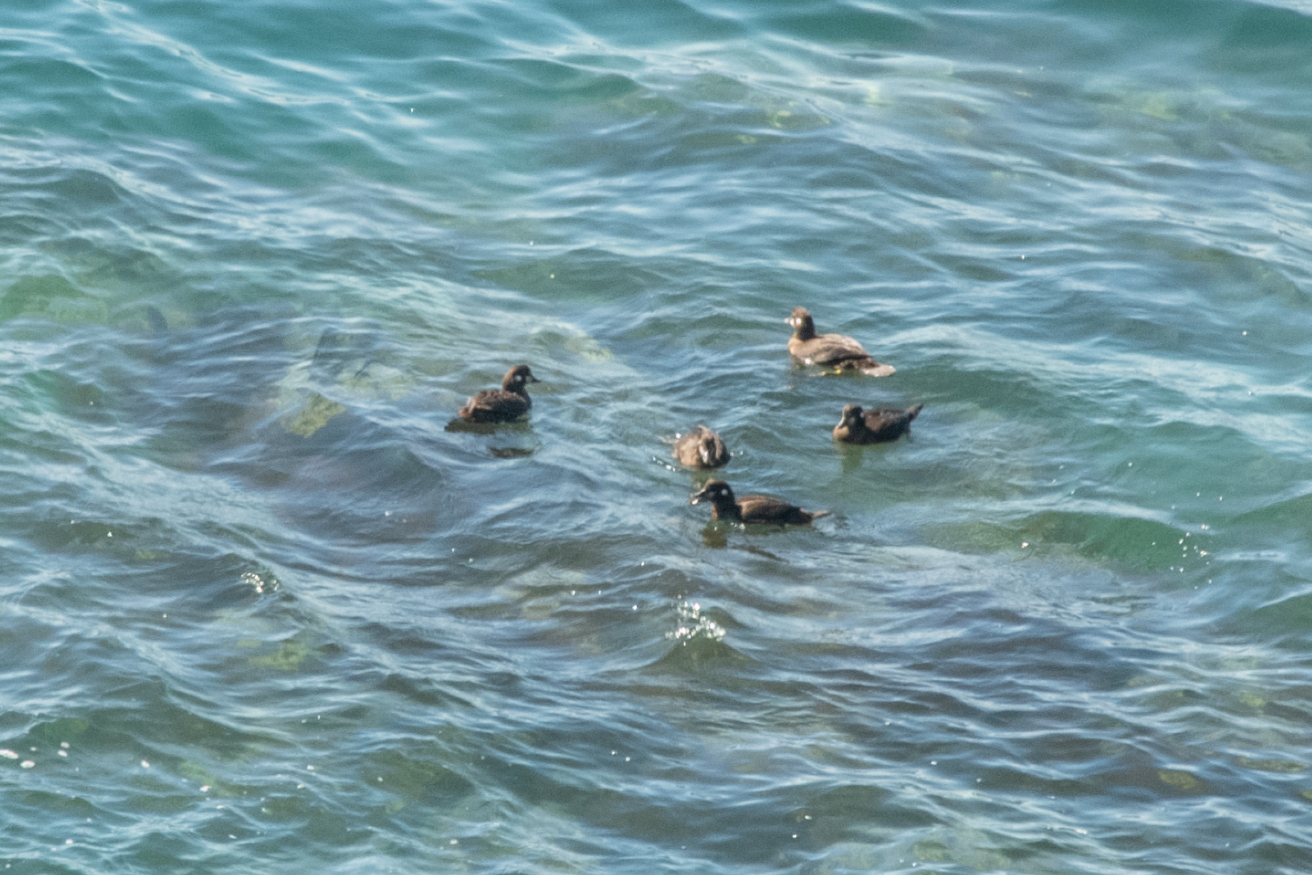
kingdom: Animalia
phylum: Chordata
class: Aves
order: Anseriformes
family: Anatidae
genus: Histrionicus
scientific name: Histrionicus histrionicus
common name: Harlequin duck
